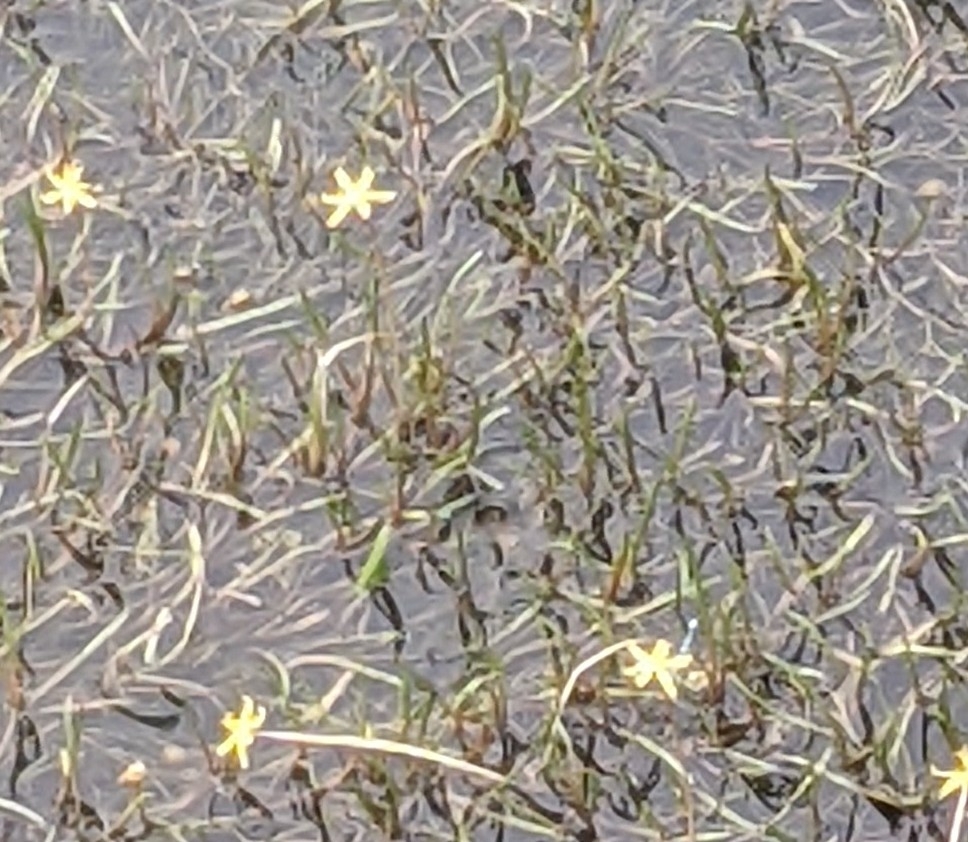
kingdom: Plantae
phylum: Tracheophyta
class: Liliopsida
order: Commelinales
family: Pontederiaceae
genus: Heteranthera
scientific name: Heteranthera dubia
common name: Grass-leaved mud plantain
